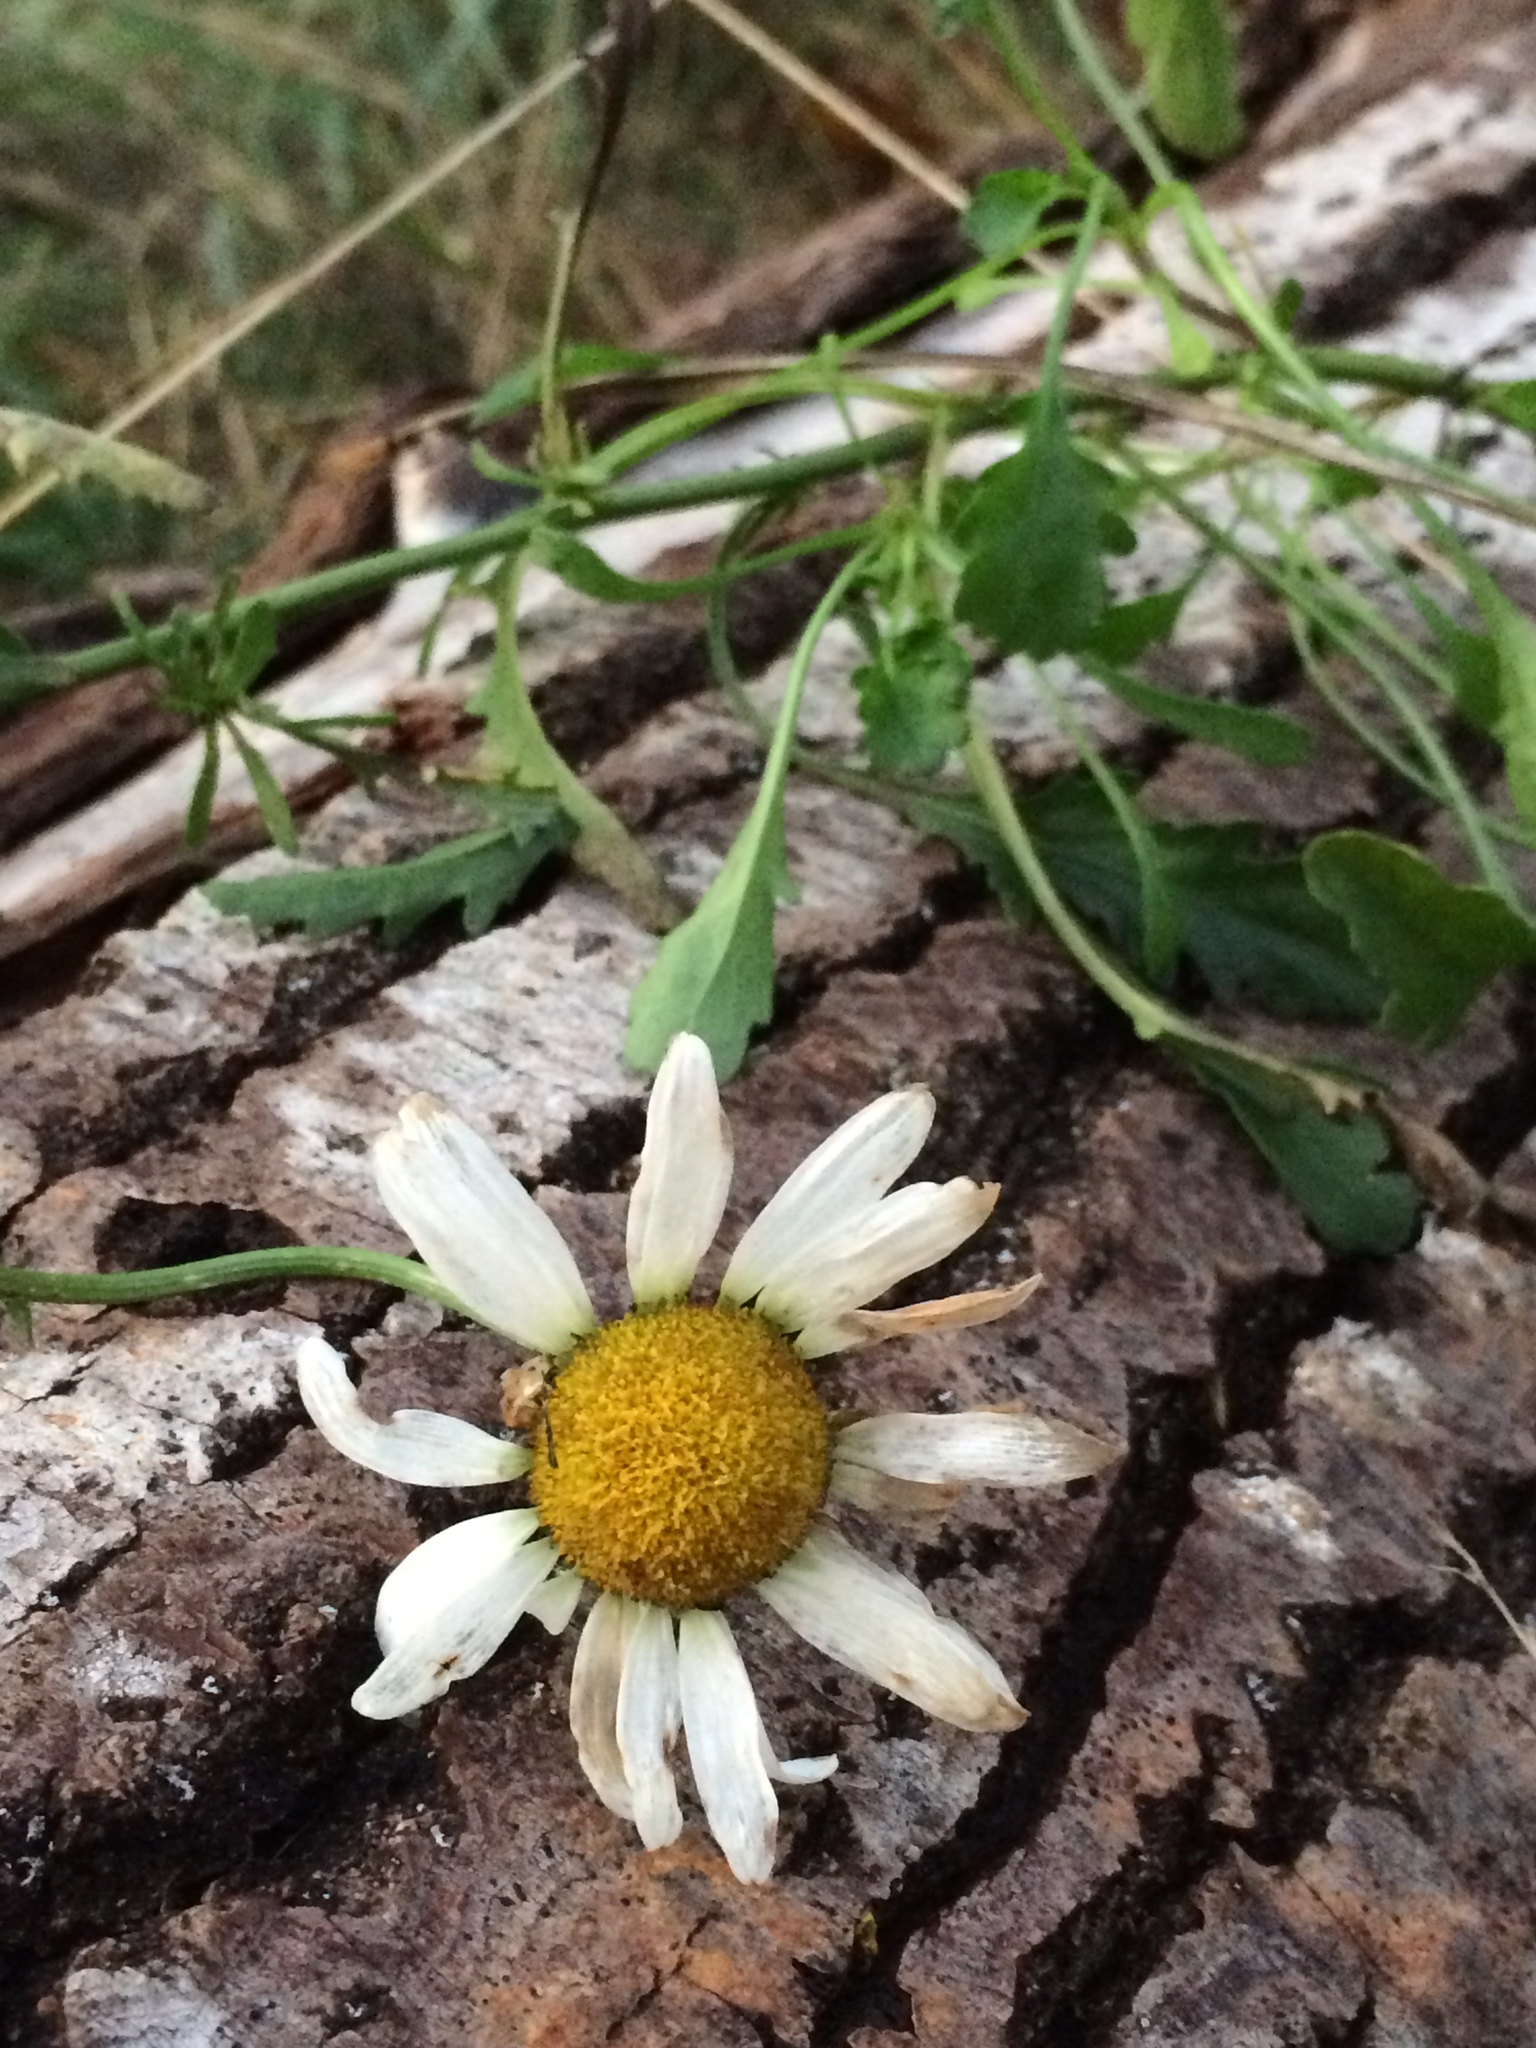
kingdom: Plantae
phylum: Tracheophyta
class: Magnoliopsida
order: Asterales
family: Asteraceae
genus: Leucanthemum
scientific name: Leucanthemum vulgare
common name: Oxeye daisy
